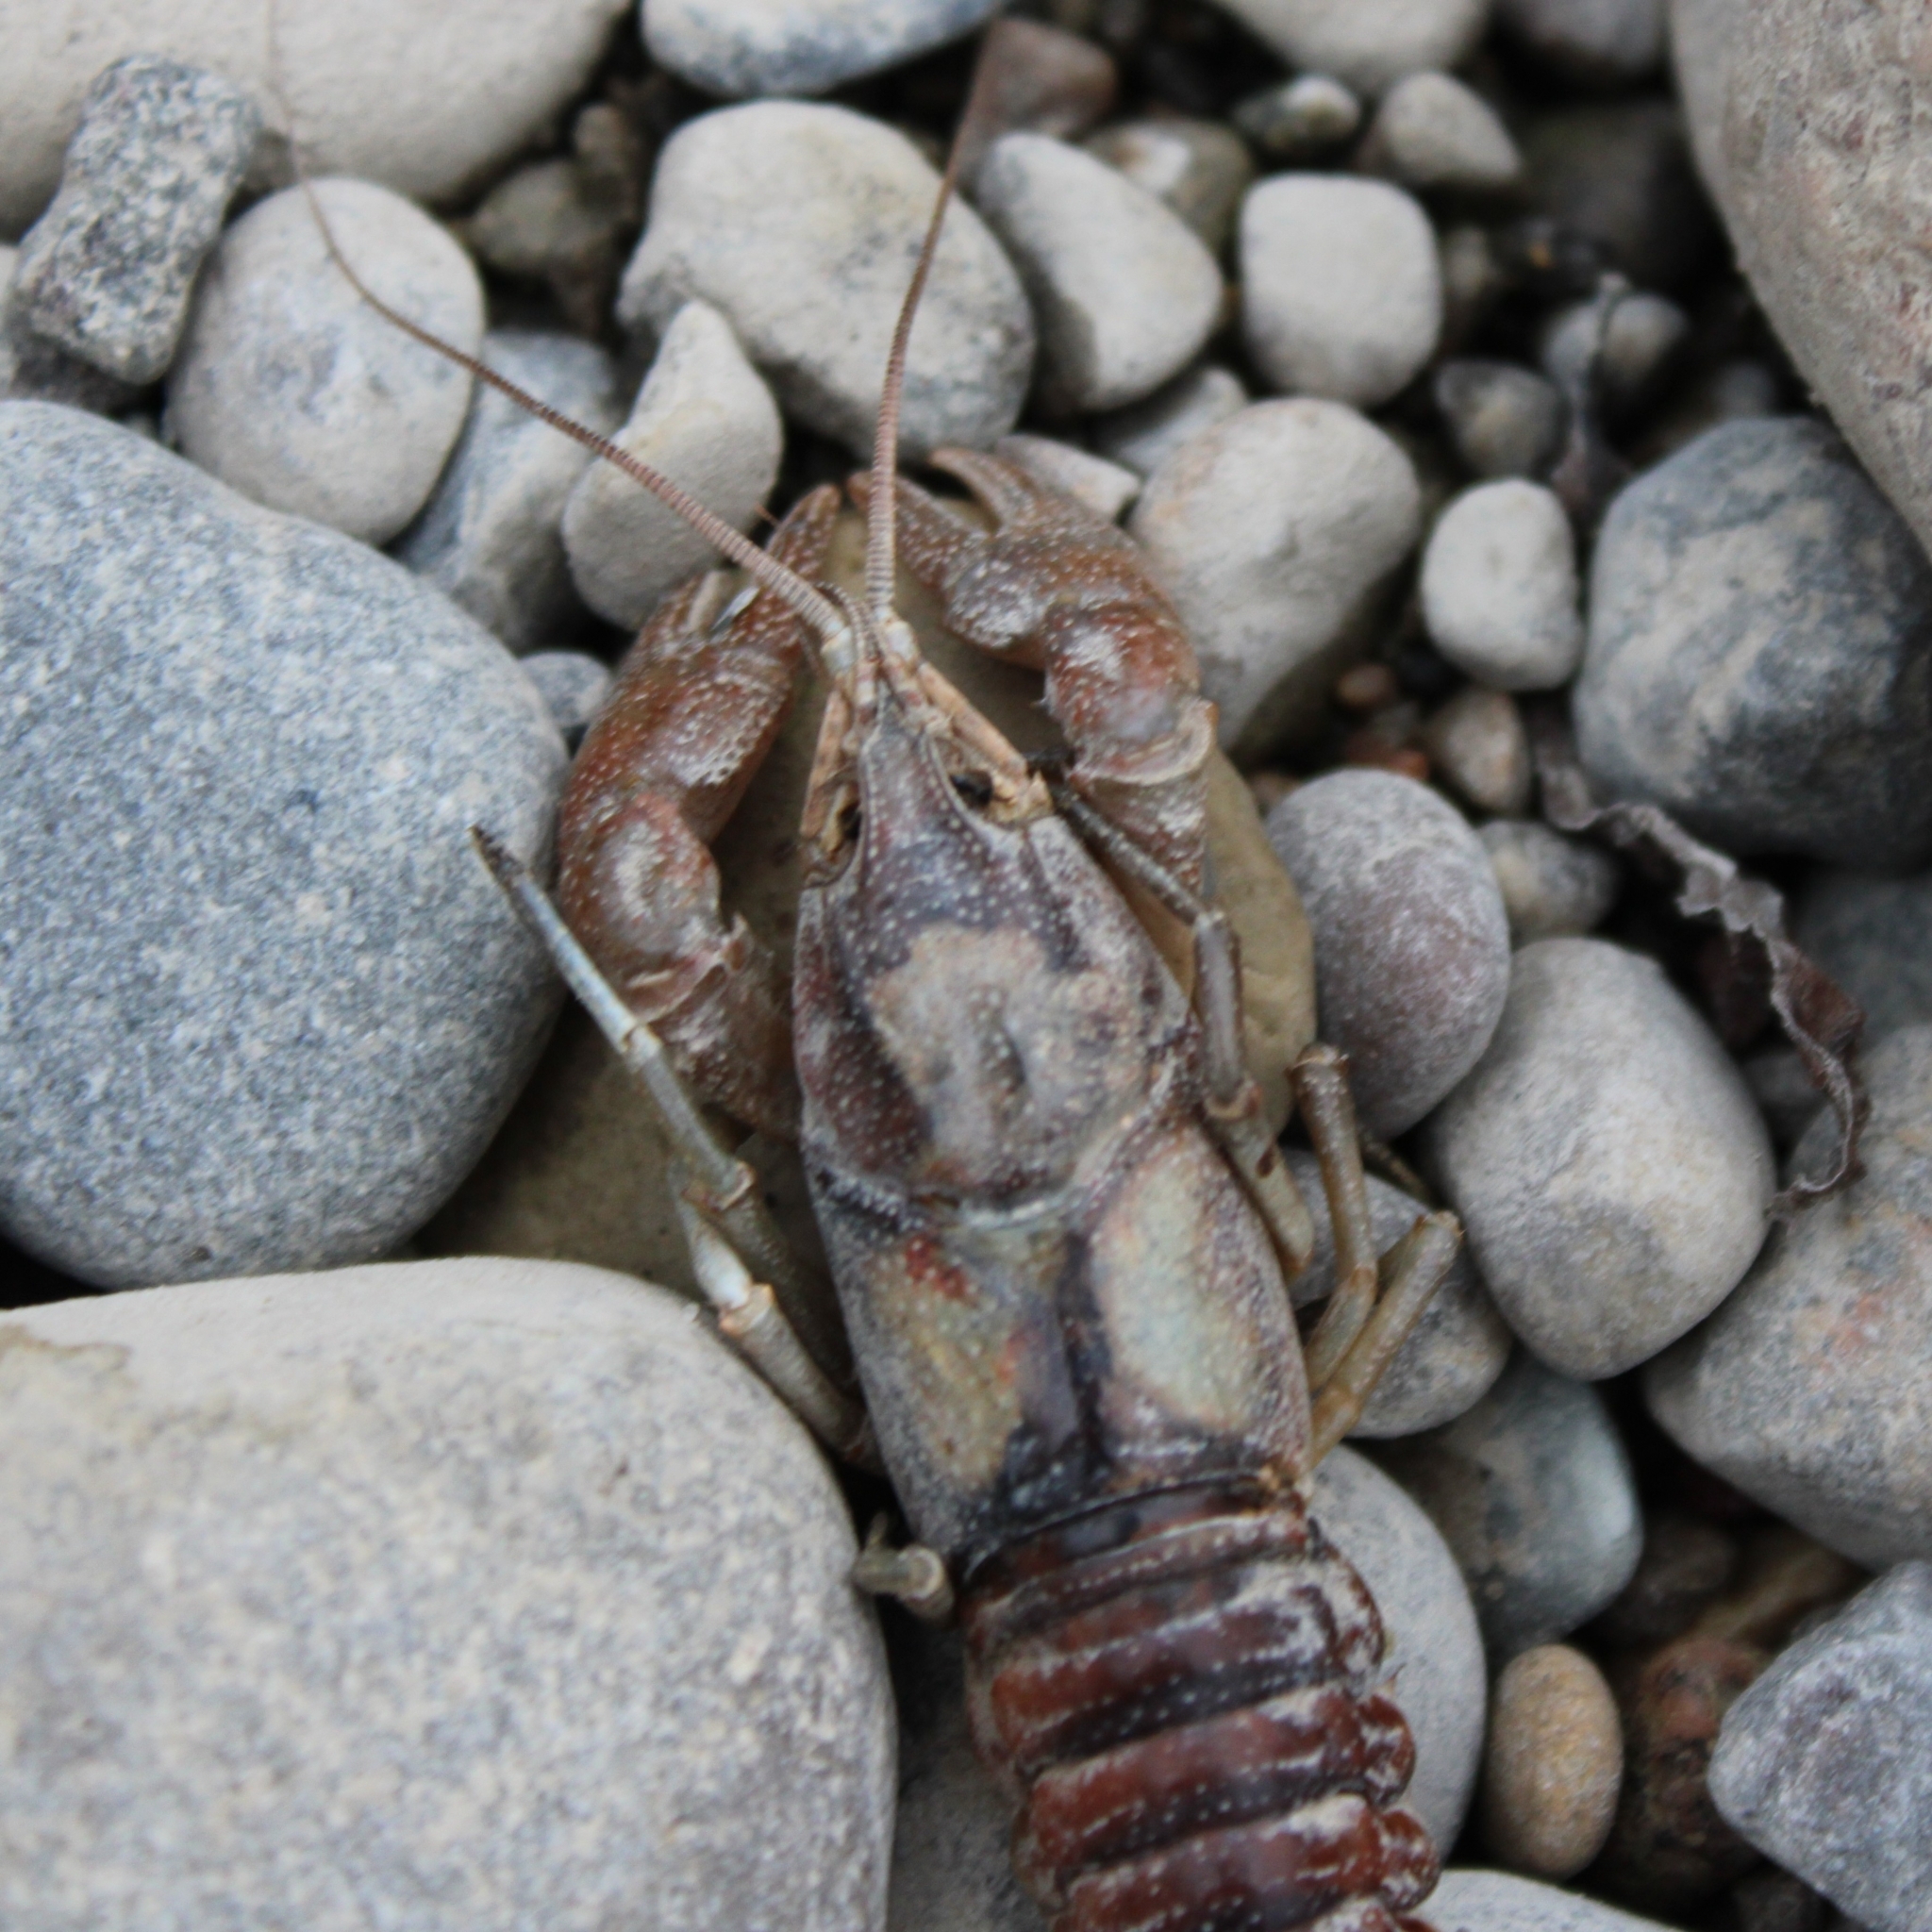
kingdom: Animalia
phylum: Arthropoda
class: Malacostraca
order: Decapoda
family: Cambaridae
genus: Faxonius
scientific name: Faxonius rusticus
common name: Rusty crayfish
